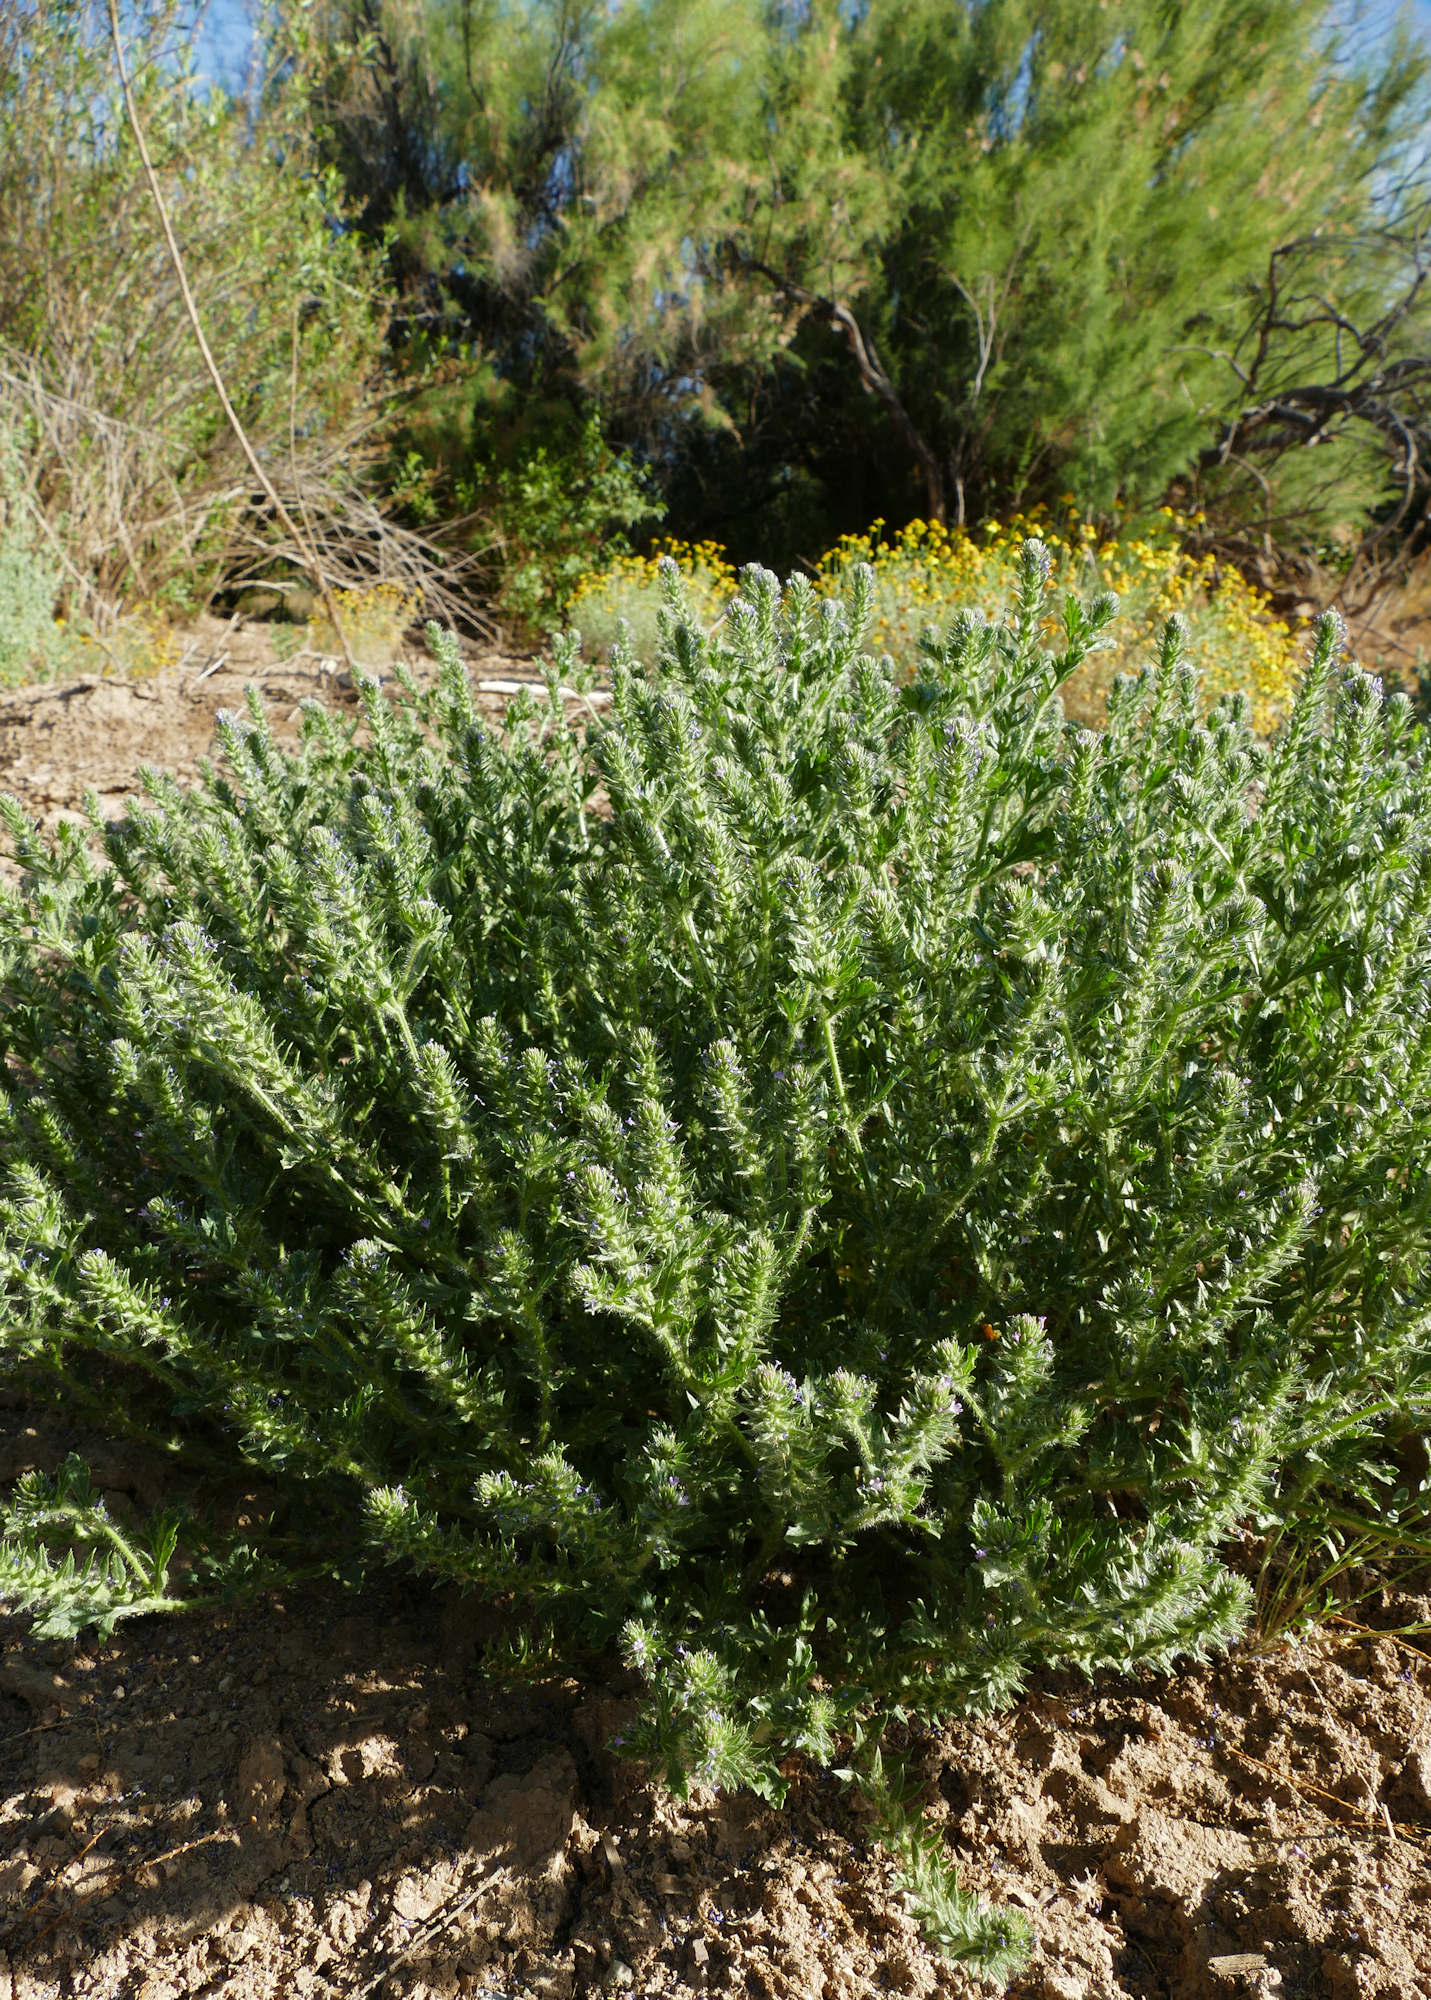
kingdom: Plantae
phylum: Tracheophyta
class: Magnoliopsida
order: Lamiales
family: Verbenaceae
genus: Verbena
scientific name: Verbena bracteata
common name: Bracted vervain
